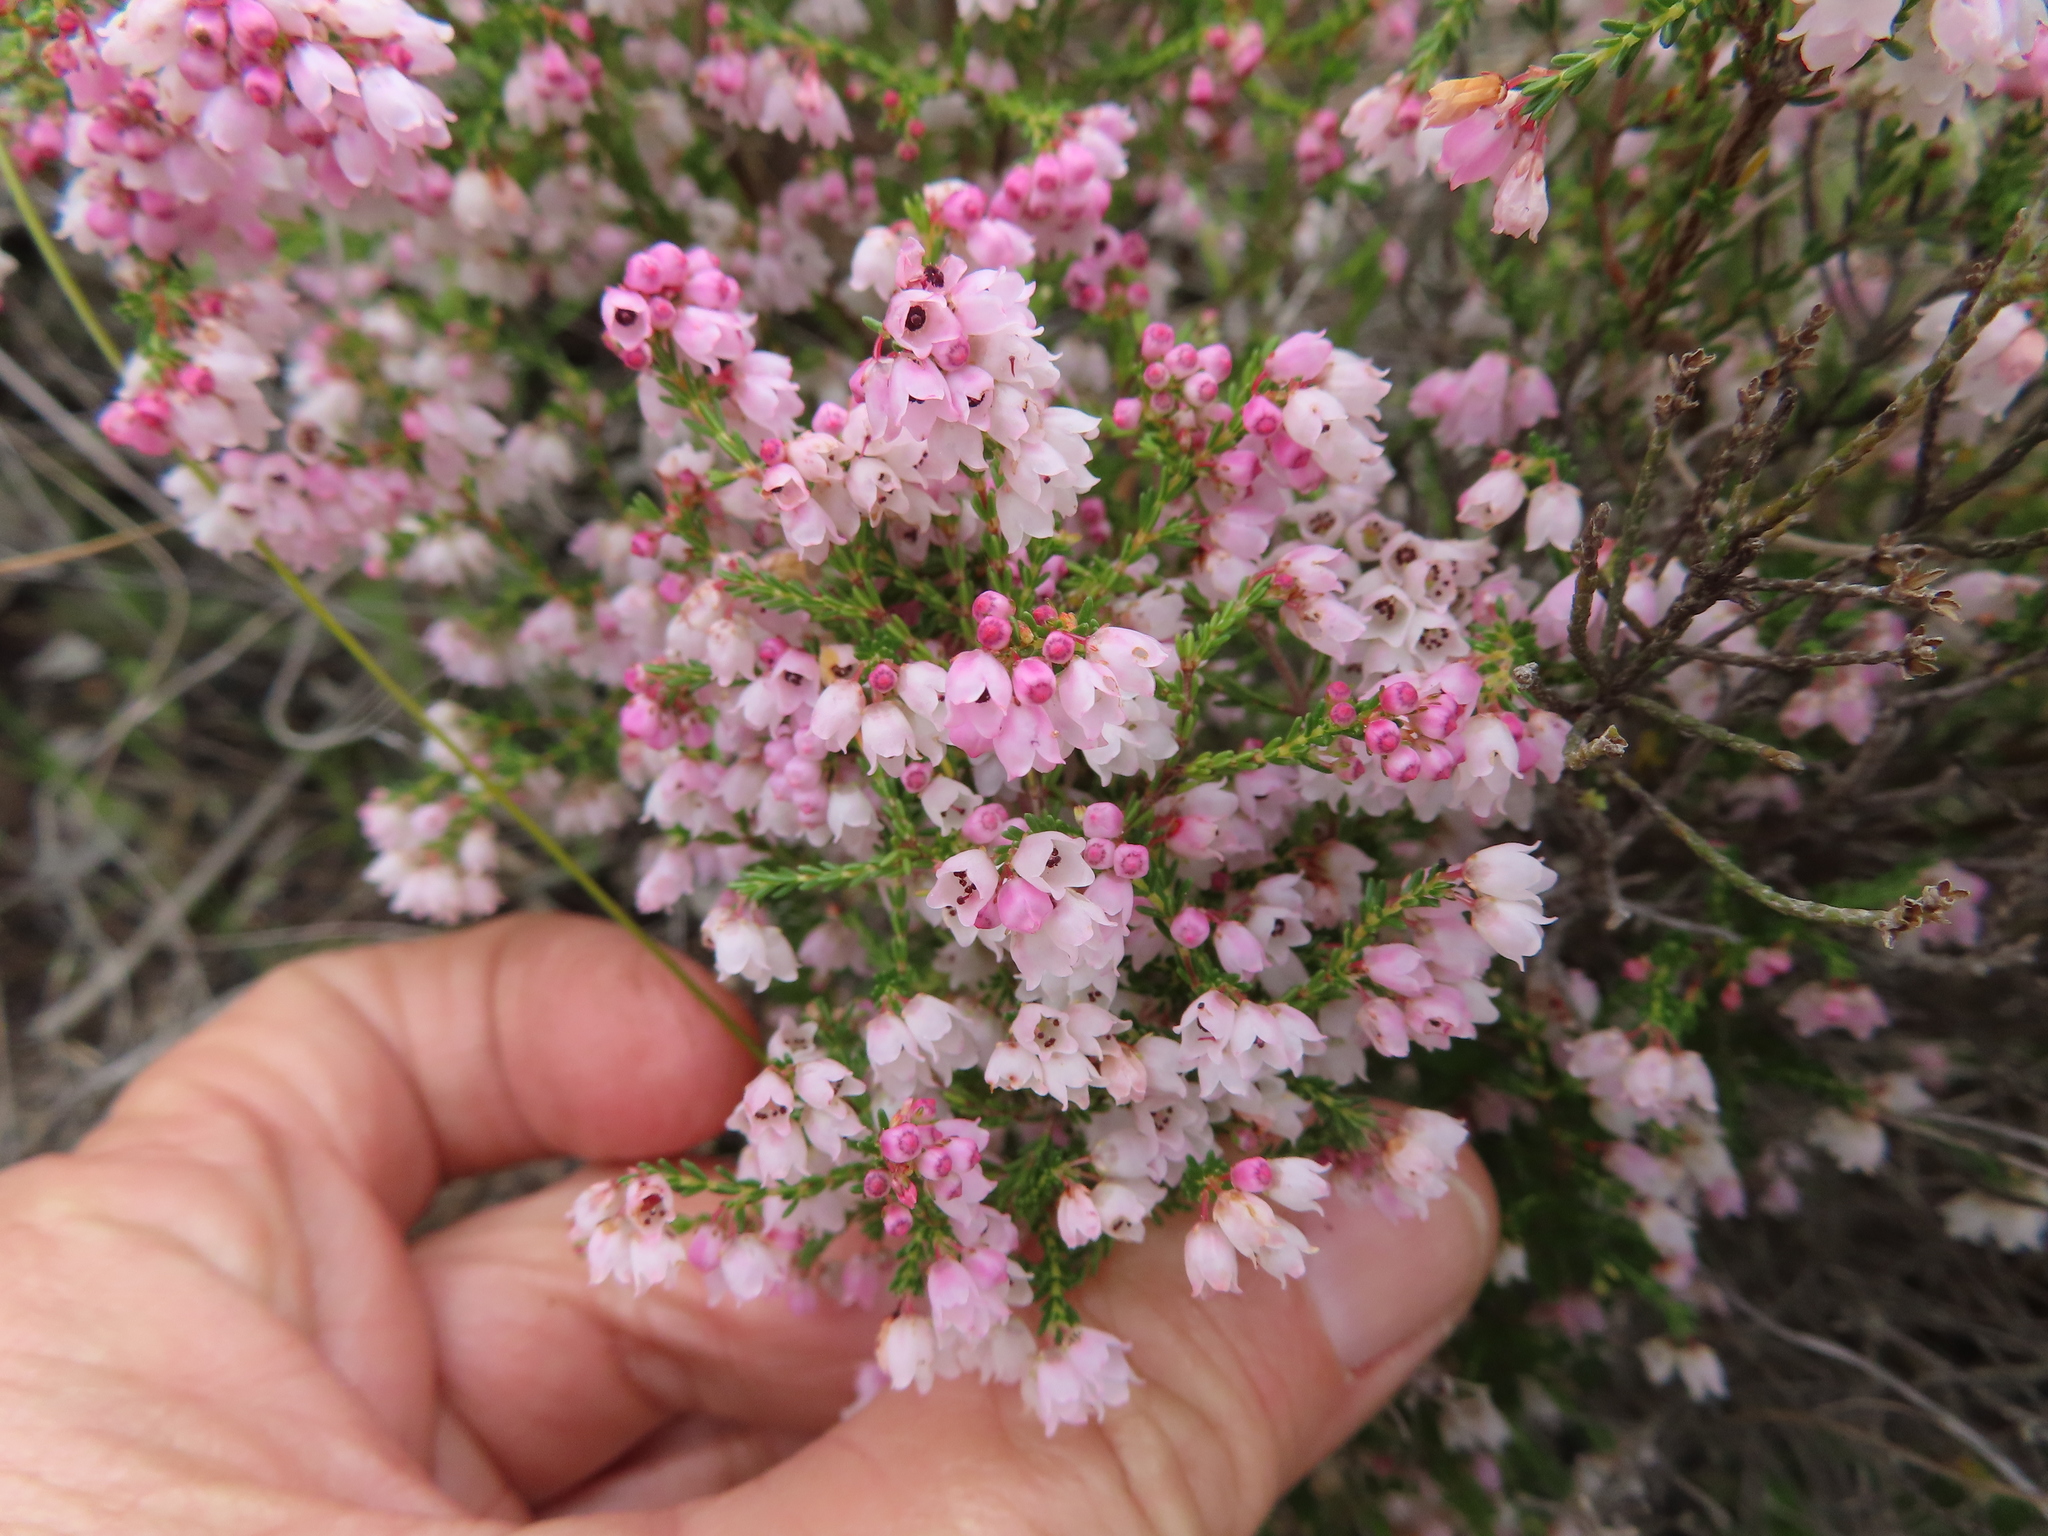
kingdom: Plantae
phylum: Tracheophyta
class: Magnoliopsida
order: Ericales
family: Ericaceae
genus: Erica
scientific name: Erica quadrangularis
